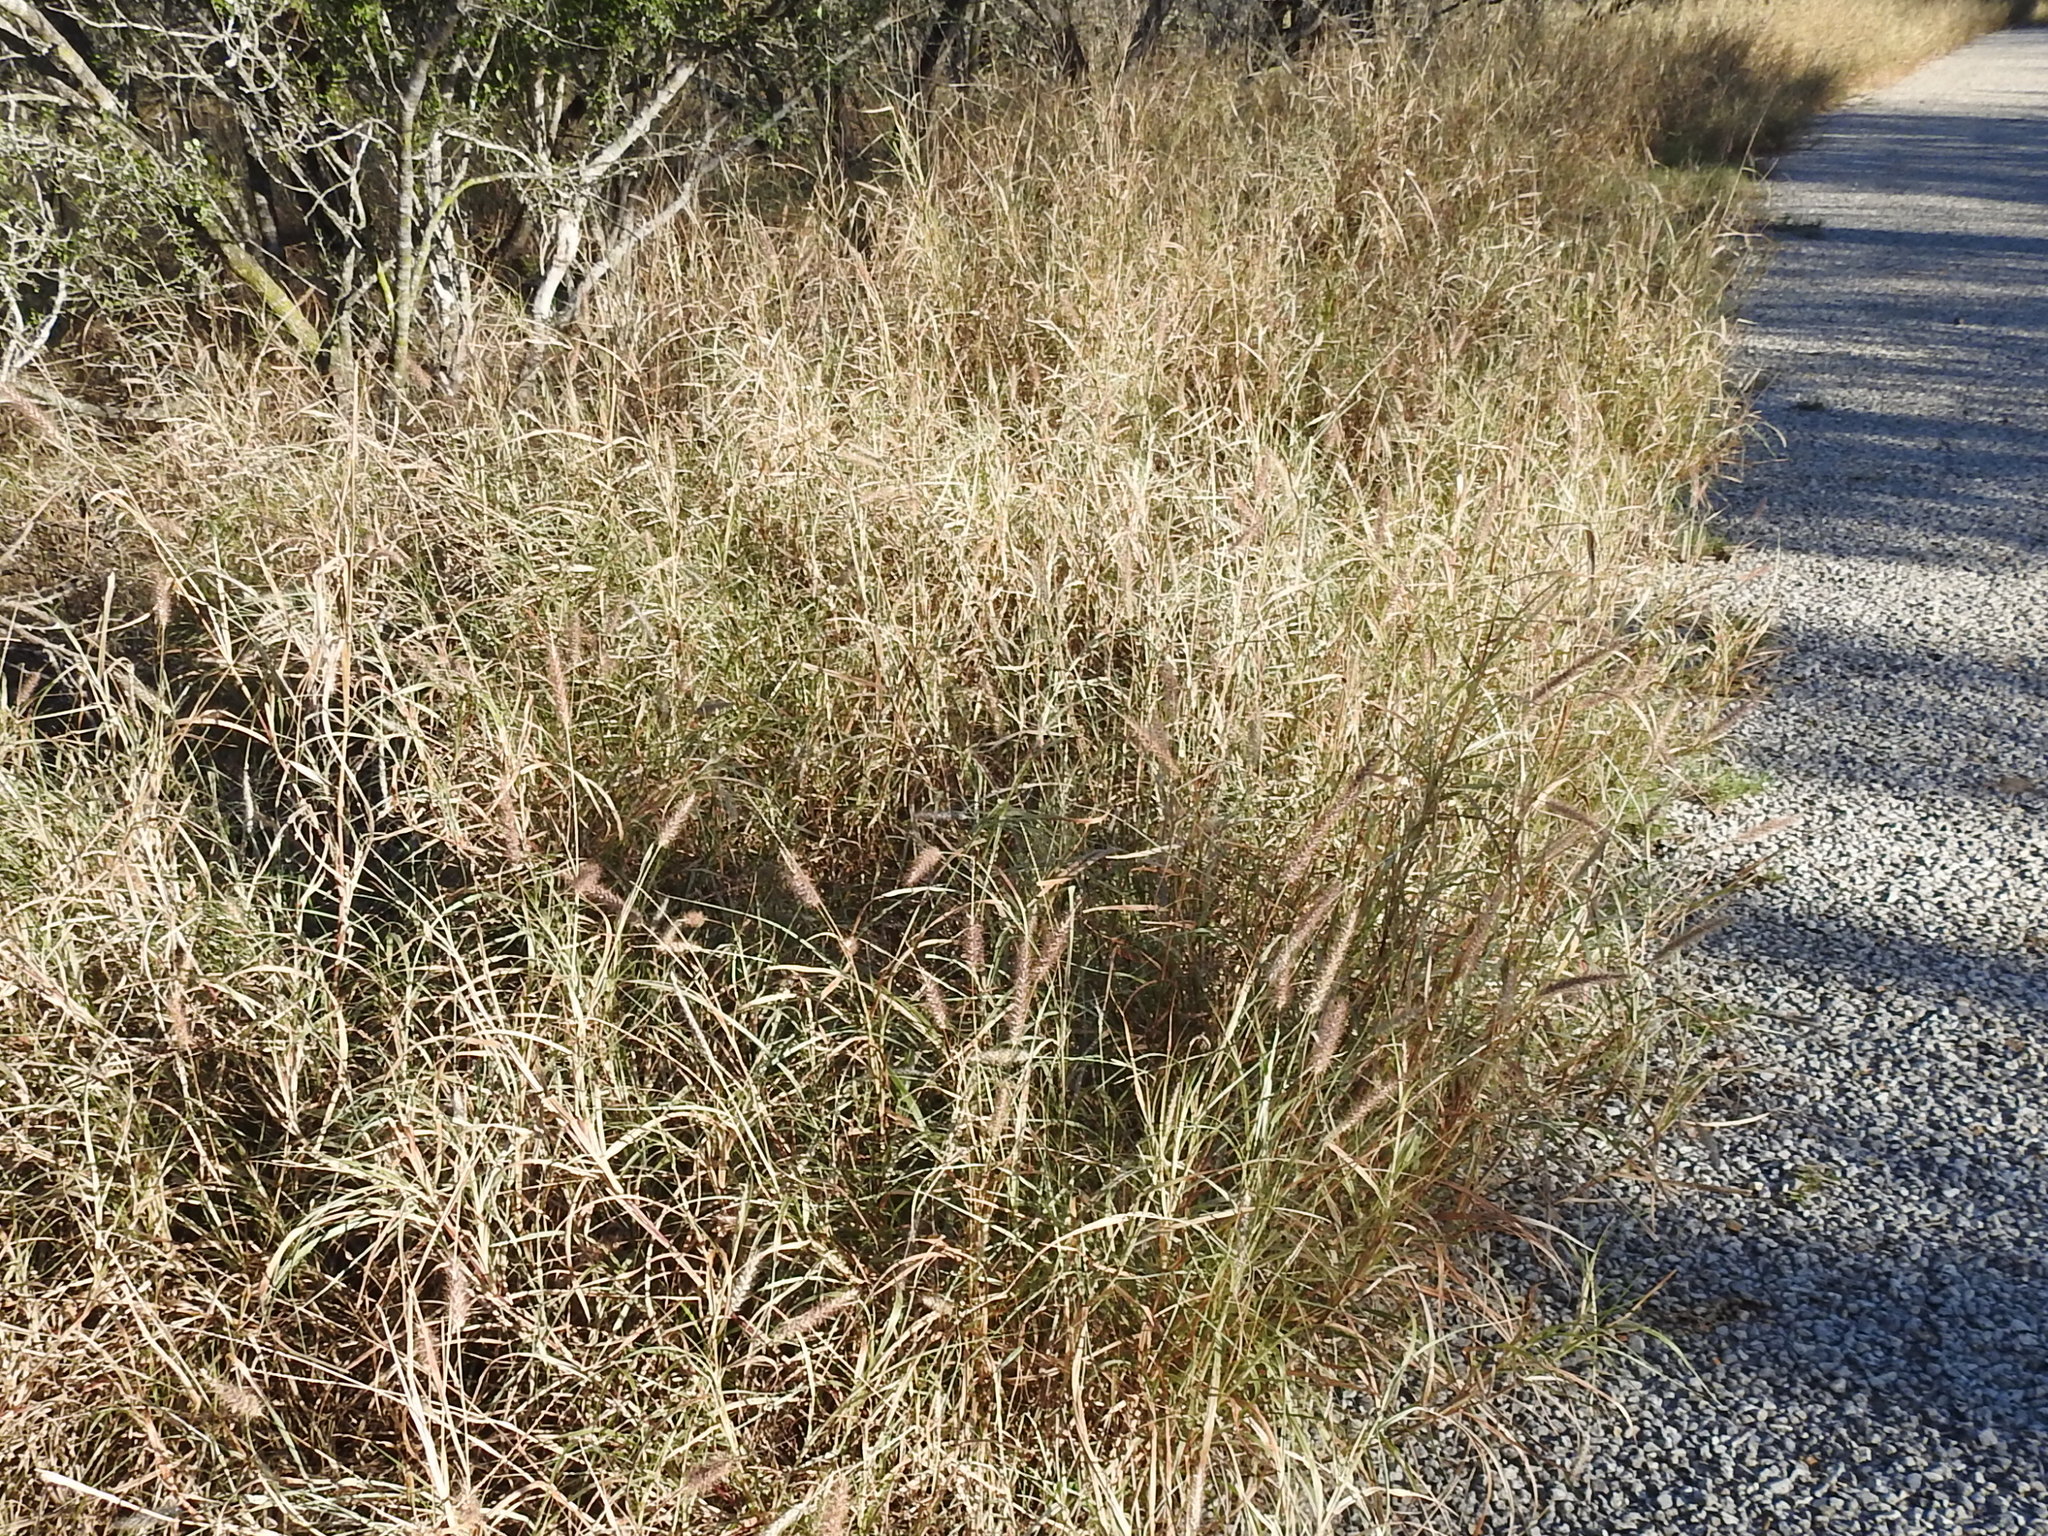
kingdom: Plantae
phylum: Tracheophyta
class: Liliopsida
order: Poales
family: Poaceae
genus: Cenchrus
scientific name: Cenchrus ciliaris
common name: Buffelgrass
